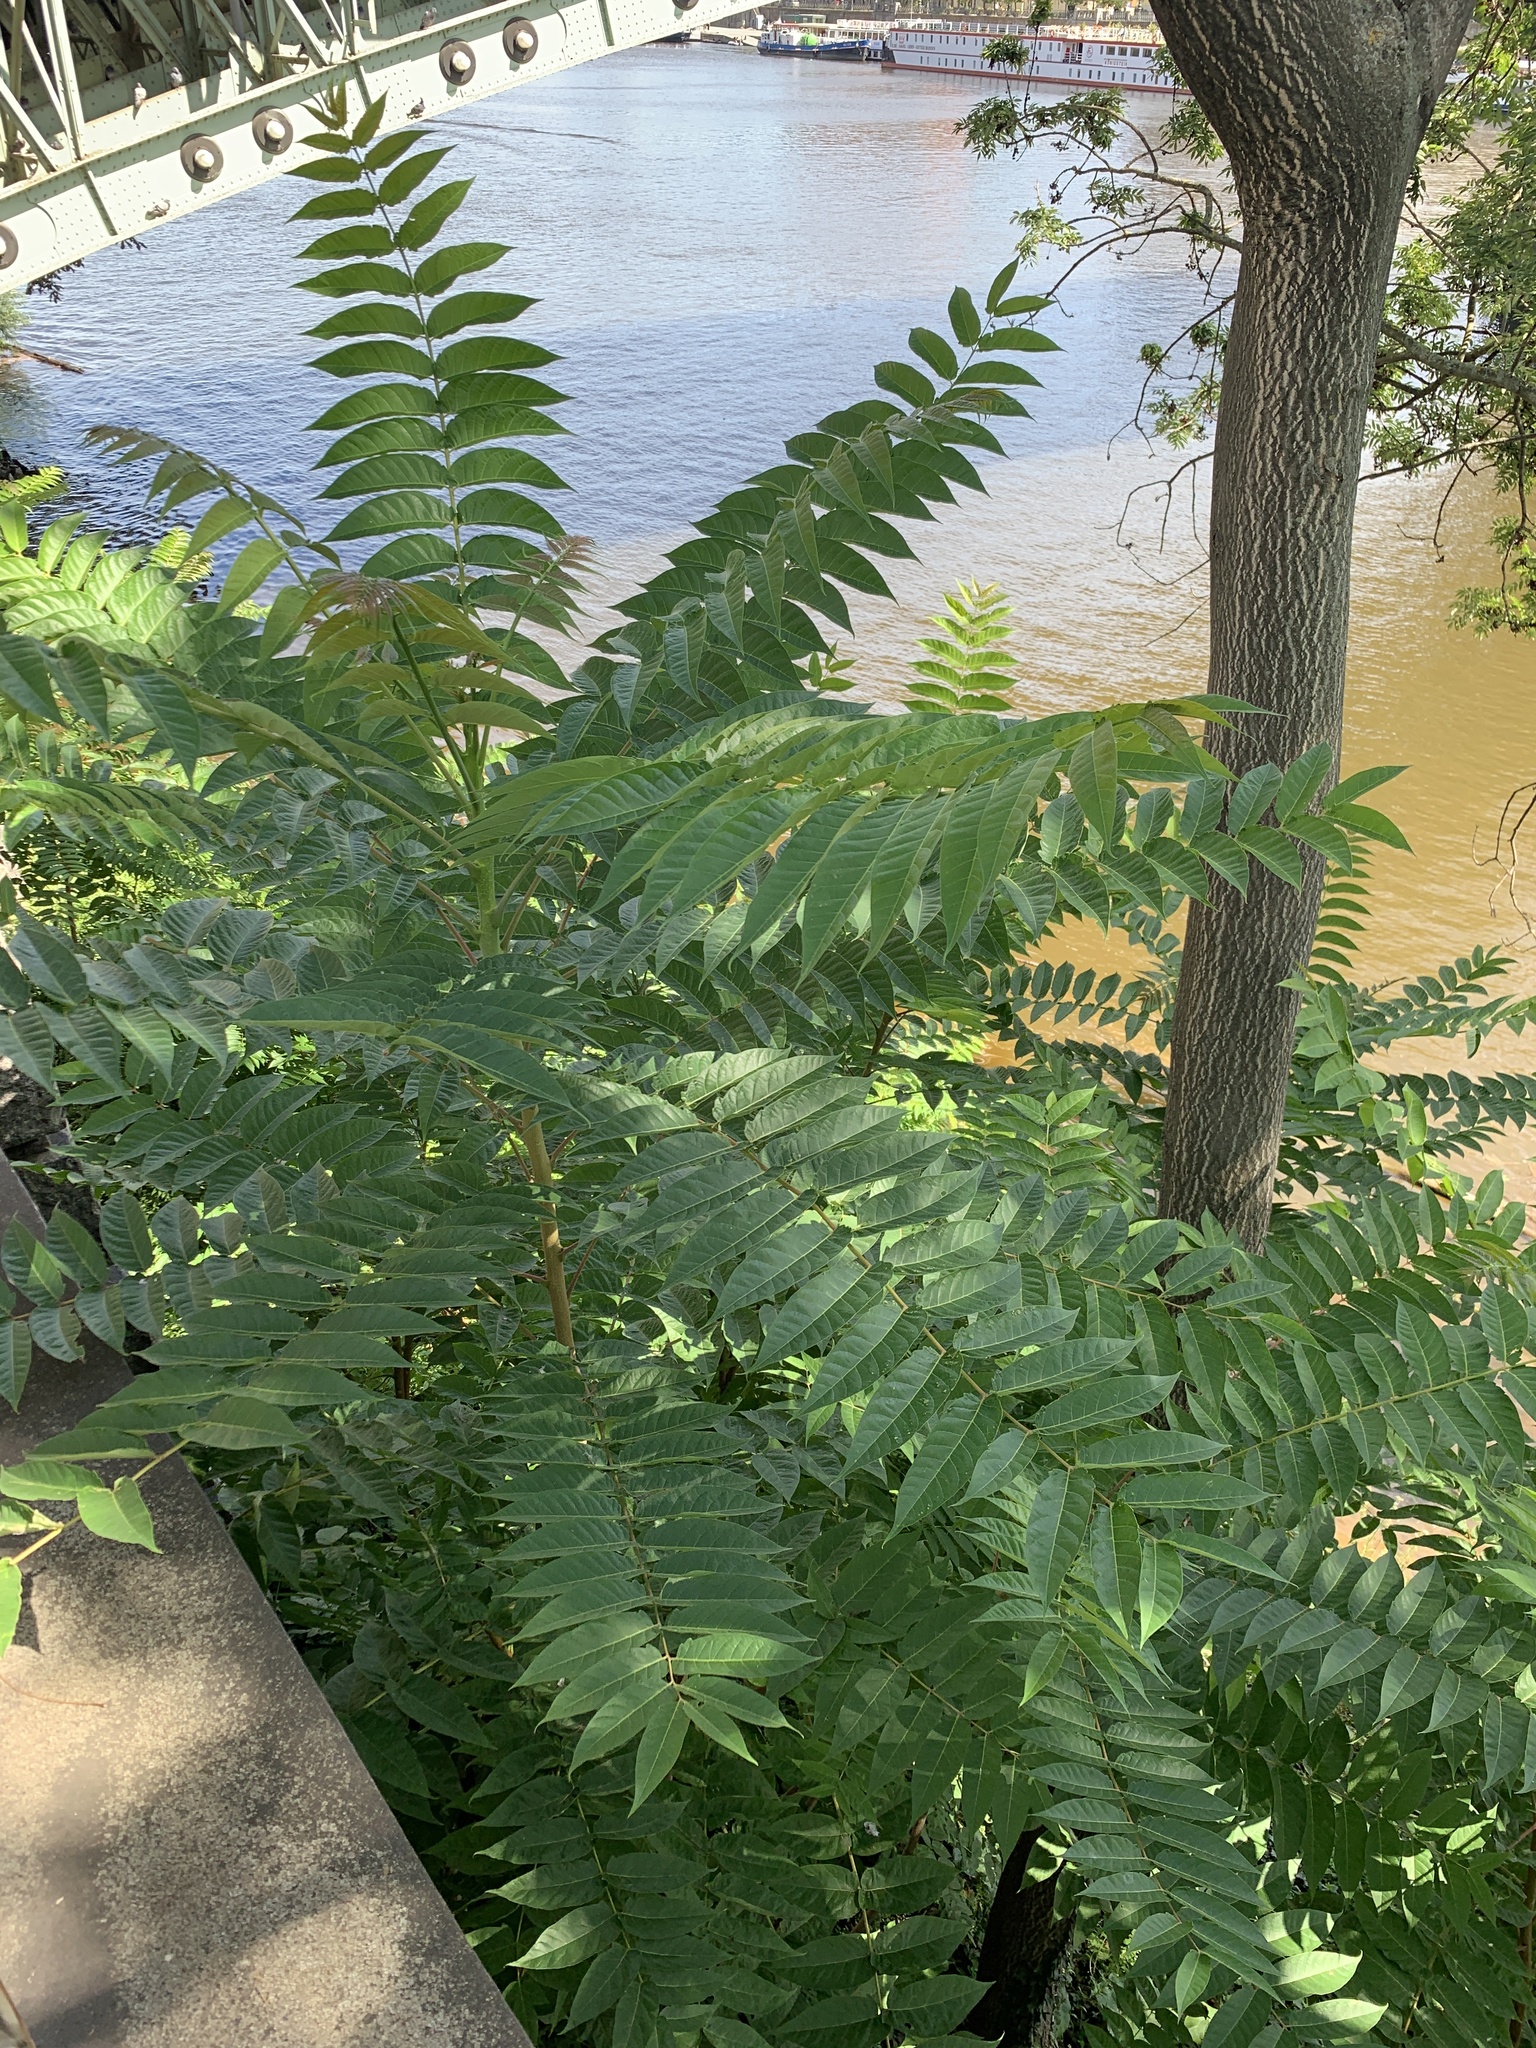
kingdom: Plantae
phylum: Tracheophyta
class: Magnoliopsida
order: Sapindales
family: Simaroubaceae
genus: Ailanthus
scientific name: Ailanthus altissima
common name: Tree-of-heaven
